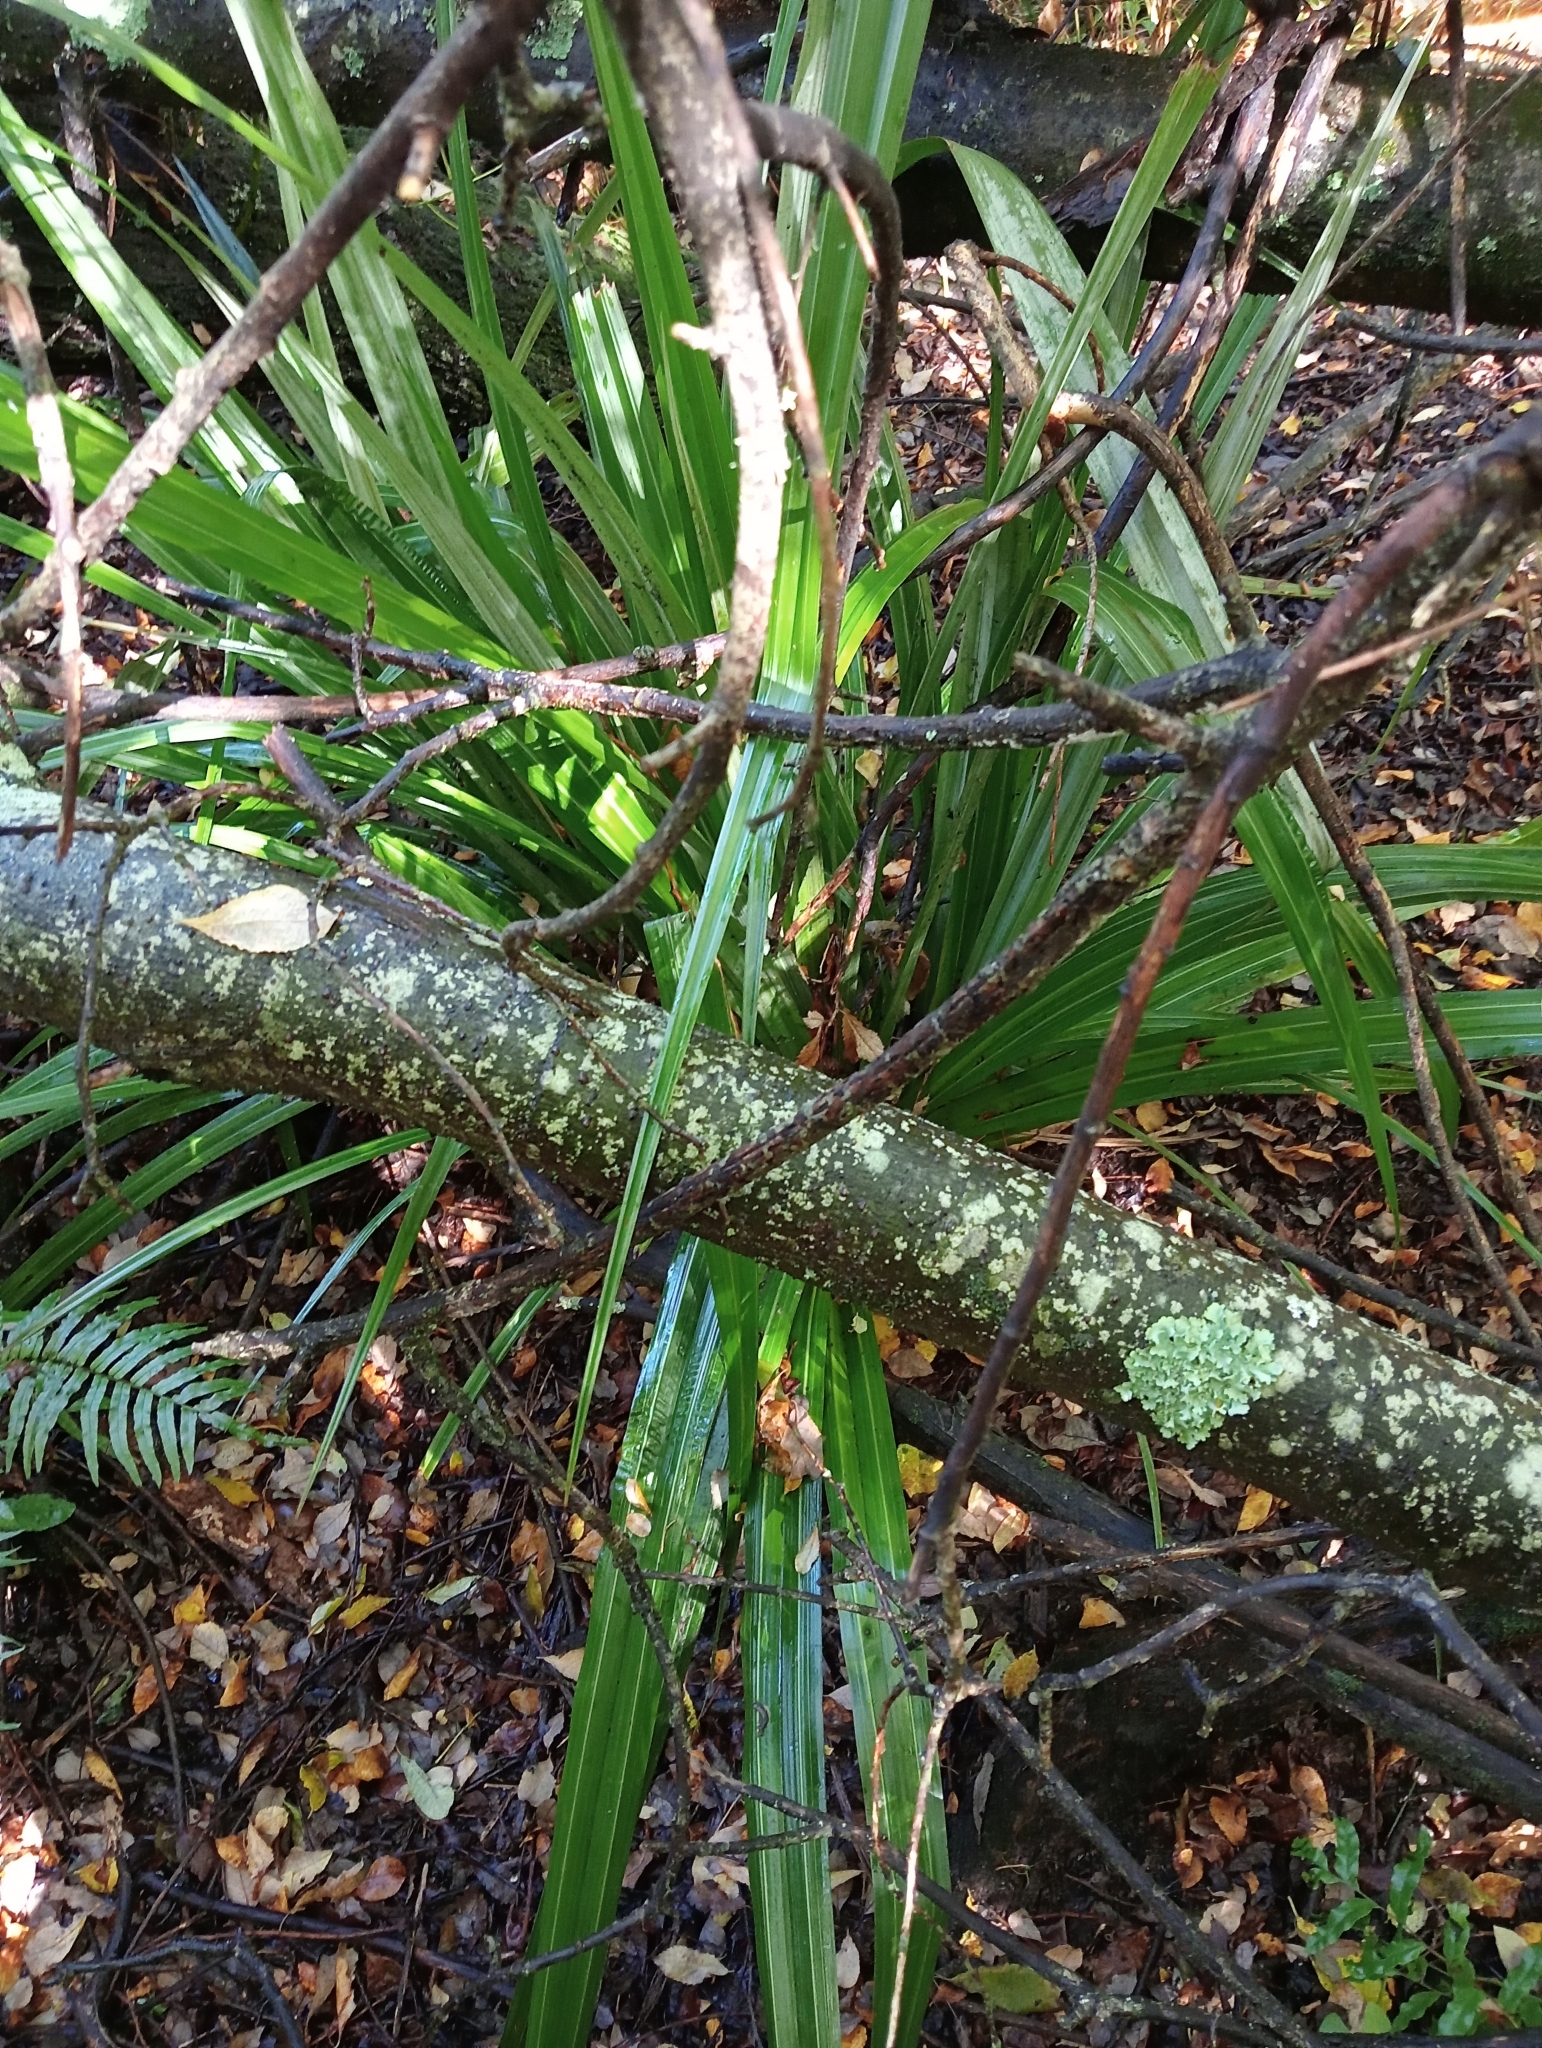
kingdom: Plantae
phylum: Tracheophyta
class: Liliopsida
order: Asparagales
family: Asteliaceae
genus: Astelia
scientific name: Astelia fragrans
